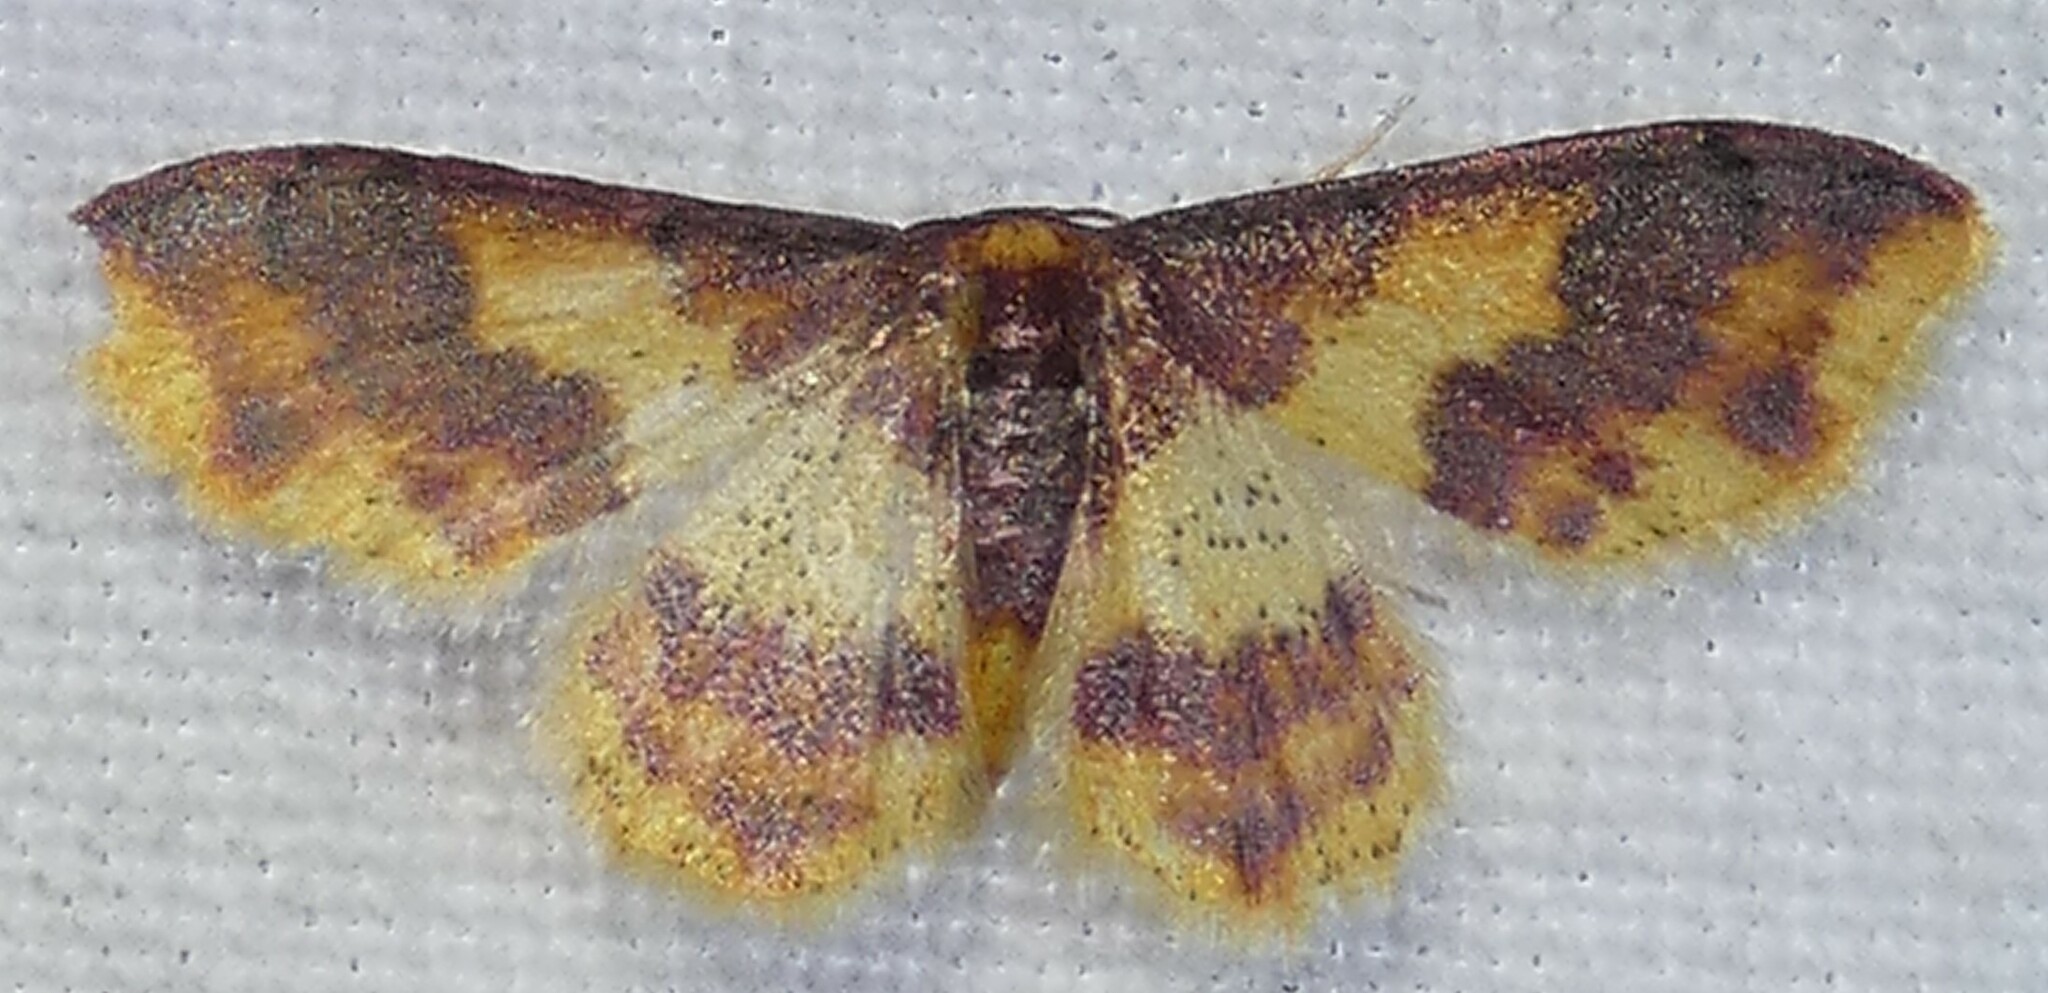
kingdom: Animalia
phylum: Arthropoda
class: Insecta
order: Lepidoptera
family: Geometridae
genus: Lophosis
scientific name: Lophosis labeculata
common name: Stained lophosis moth
